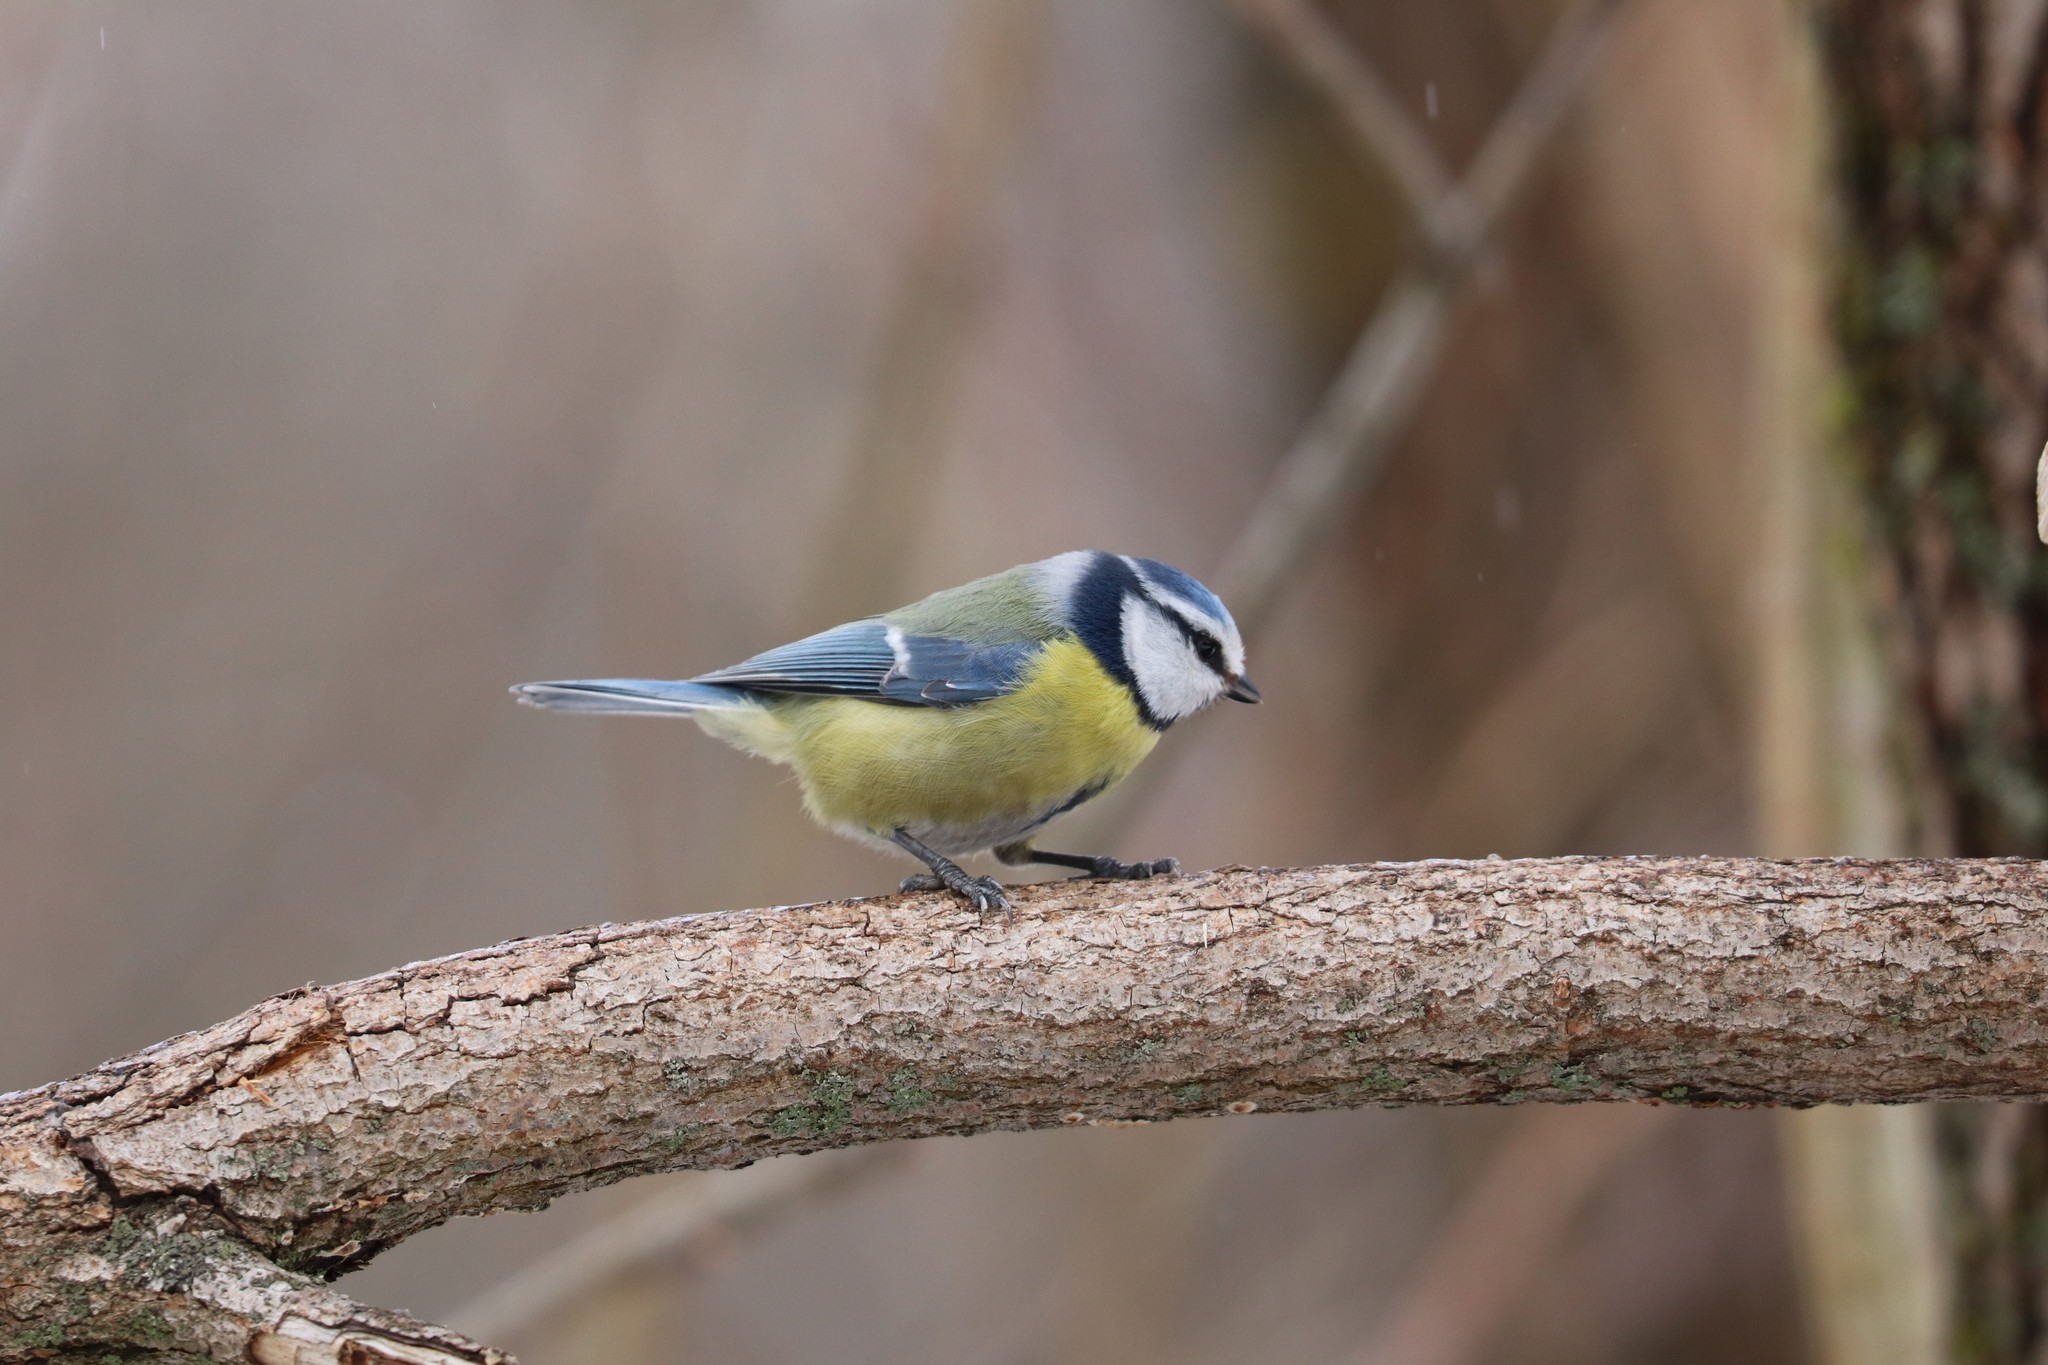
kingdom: Animalia
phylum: Chordata
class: Aves
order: Passeriformes
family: Paridae
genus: Cyanistes
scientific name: Cyanistes caeruleus
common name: Eurasian blue tit
